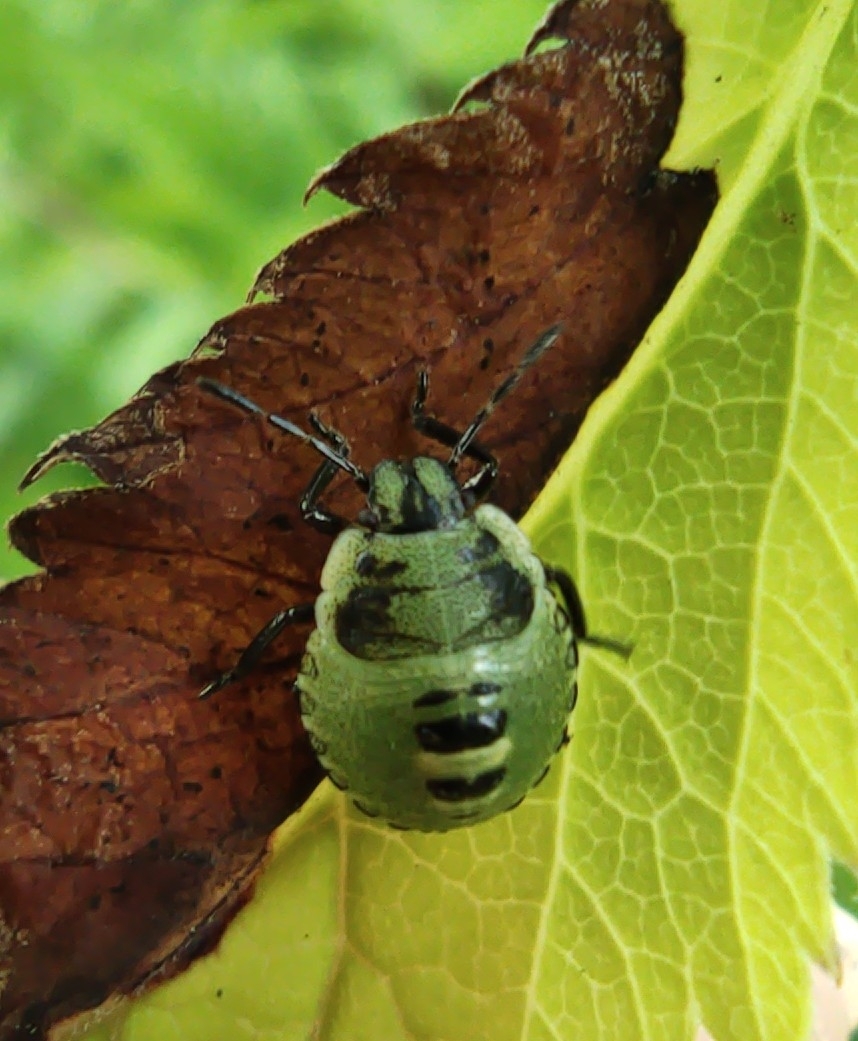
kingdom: Animalia
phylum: Arthropoda
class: Insecta
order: Hemiptera
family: Pentatomidae
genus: Palomena
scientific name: Palomena prasina
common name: Green shieldbug
